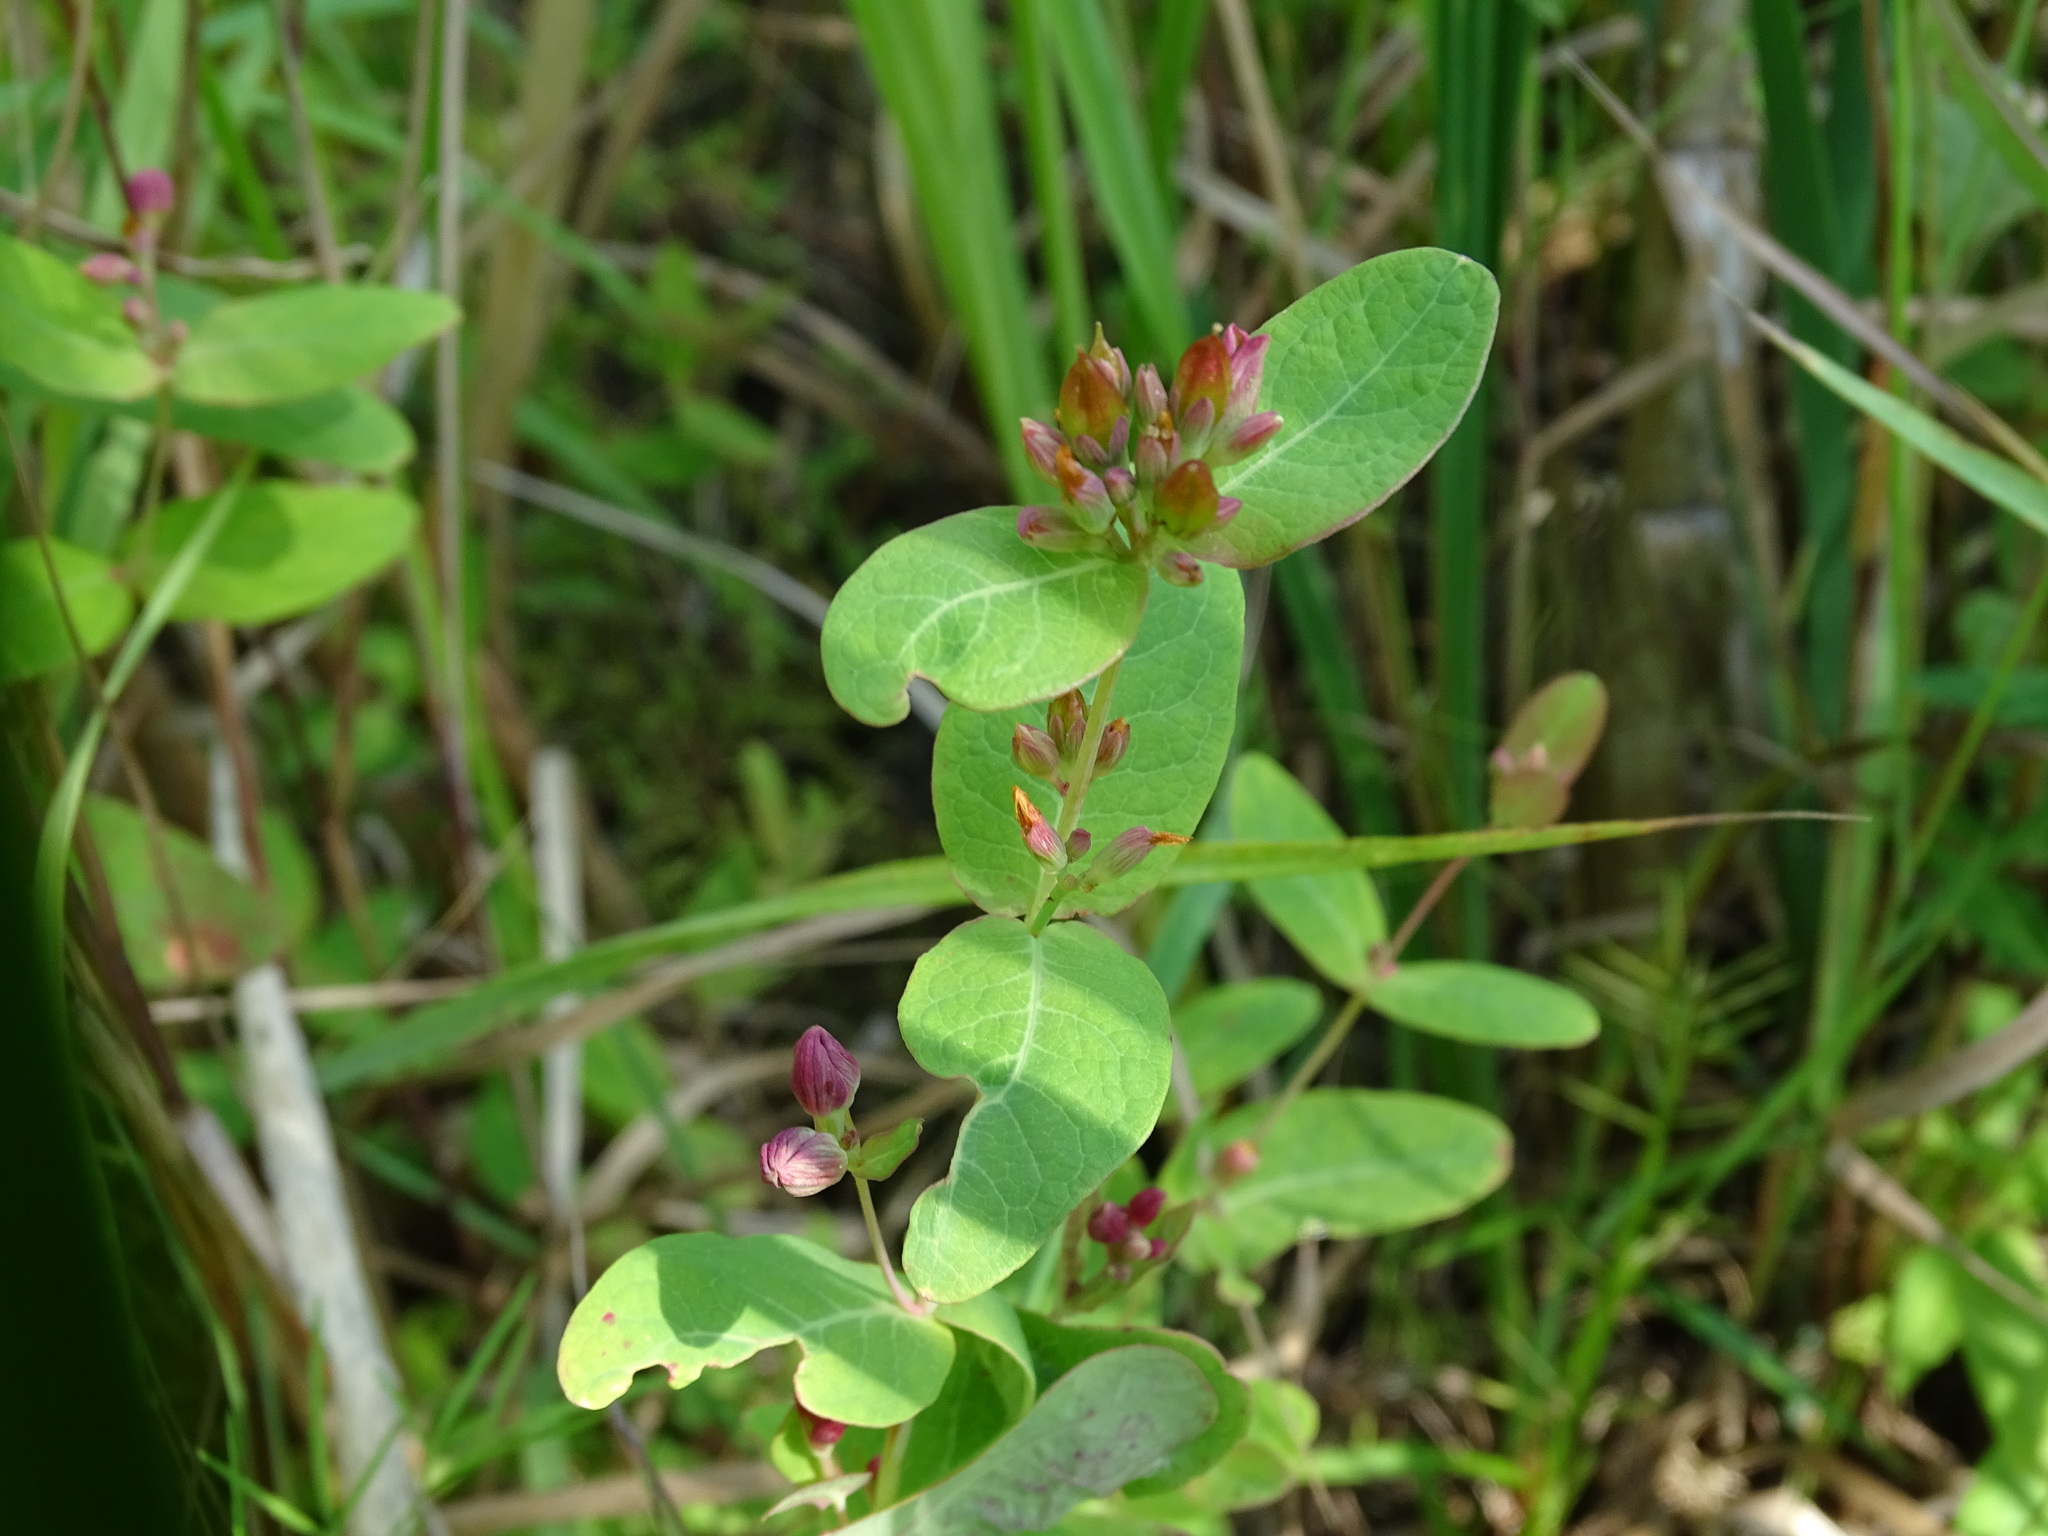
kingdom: Plantae
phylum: Tracheophyta
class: Magnoliopsida
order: Malpighiales
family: Hypericaceae
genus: Triadenum
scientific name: Triadenum fraseri
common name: Fraser's marsh st. johnswort
